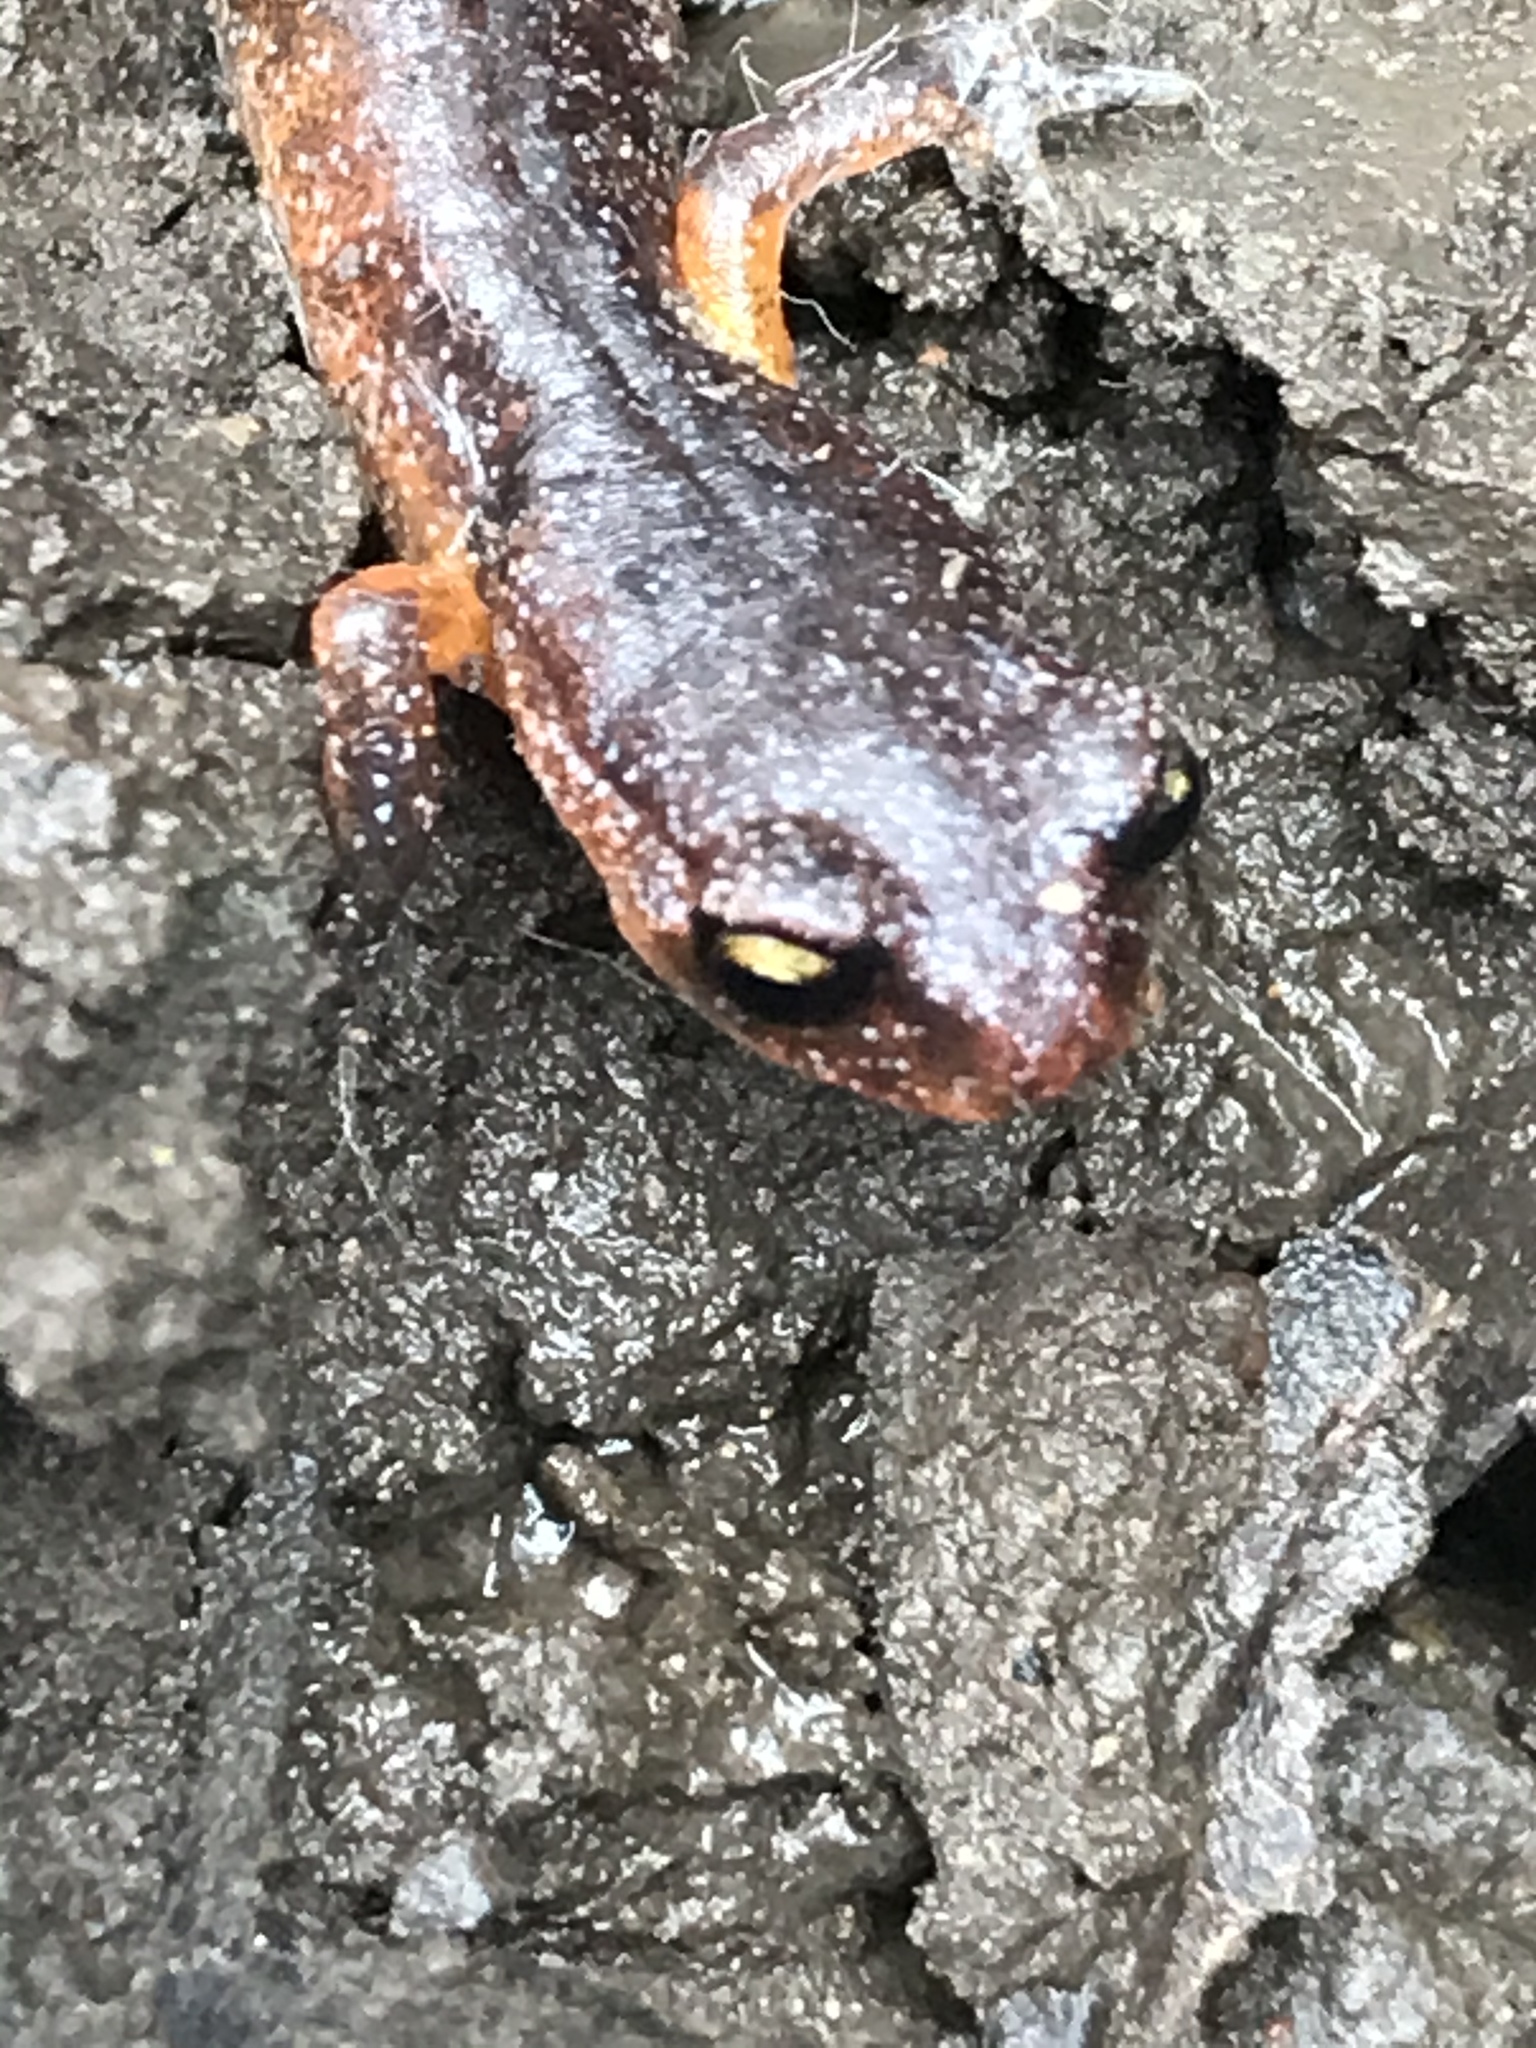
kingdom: Animalia
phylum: Chordata
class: Amphibia
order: Caudata
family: Plethodontidae
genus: Ensatina
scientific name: Ensatina eschscholtzii
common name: Ensatina
